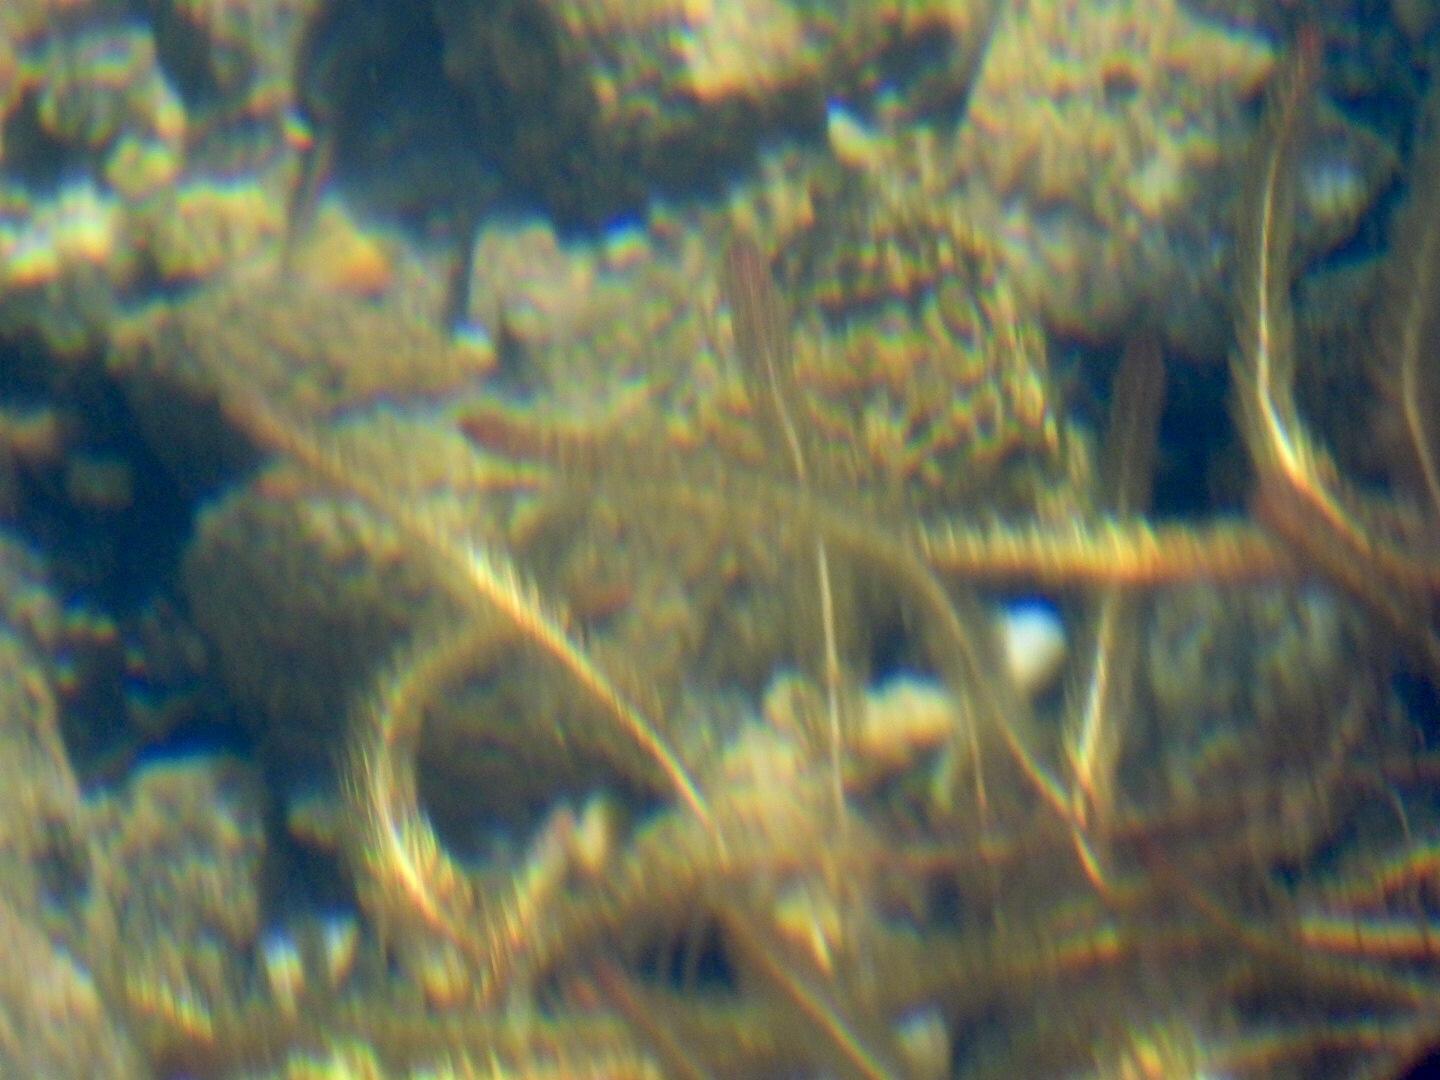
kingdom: Plantae
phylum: Tracheophyta
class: Magnoliopsida
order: Saxifragales
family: Haloragaceae
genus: Myriophyllum
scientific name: Myriophyllum alterniflorum
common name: Alternate water-milfoil
